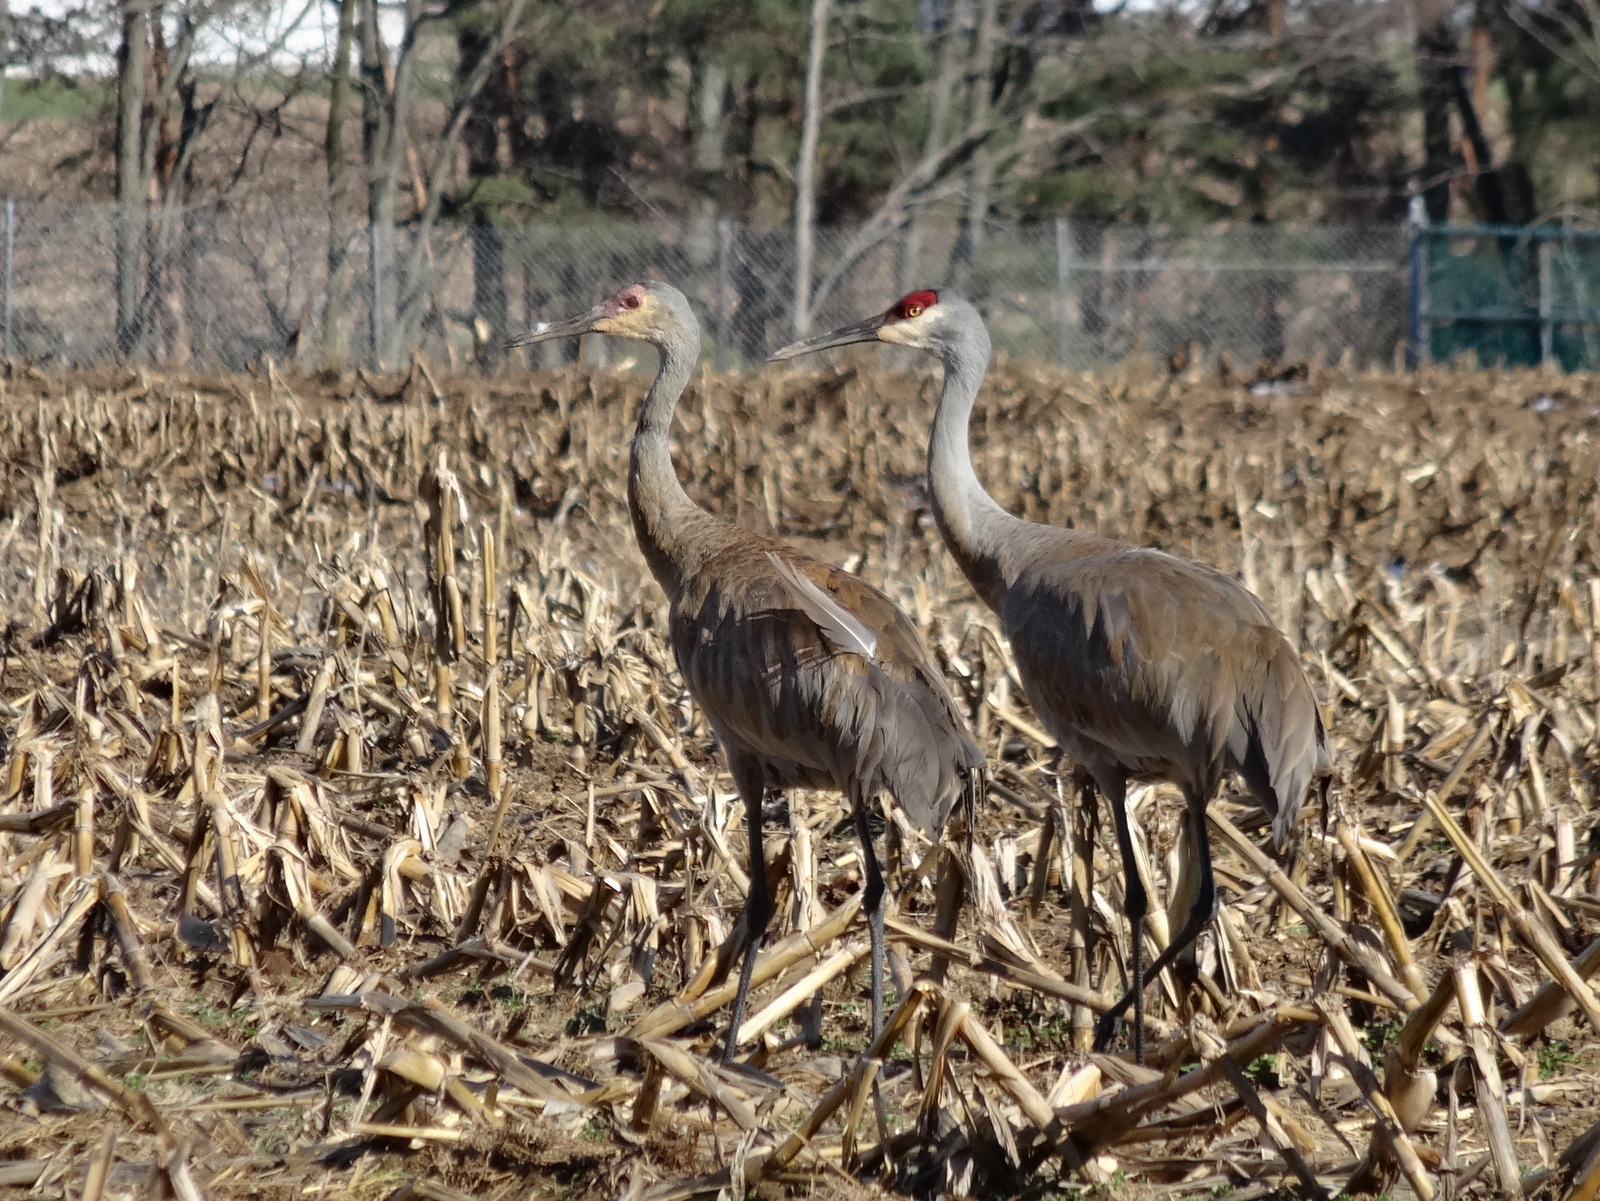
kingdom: Animalia
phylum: Chordata
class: Aves
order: Gruiformes
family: Gruidae
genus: Grus
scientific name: Grus canadensis
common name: Sandhill crane
